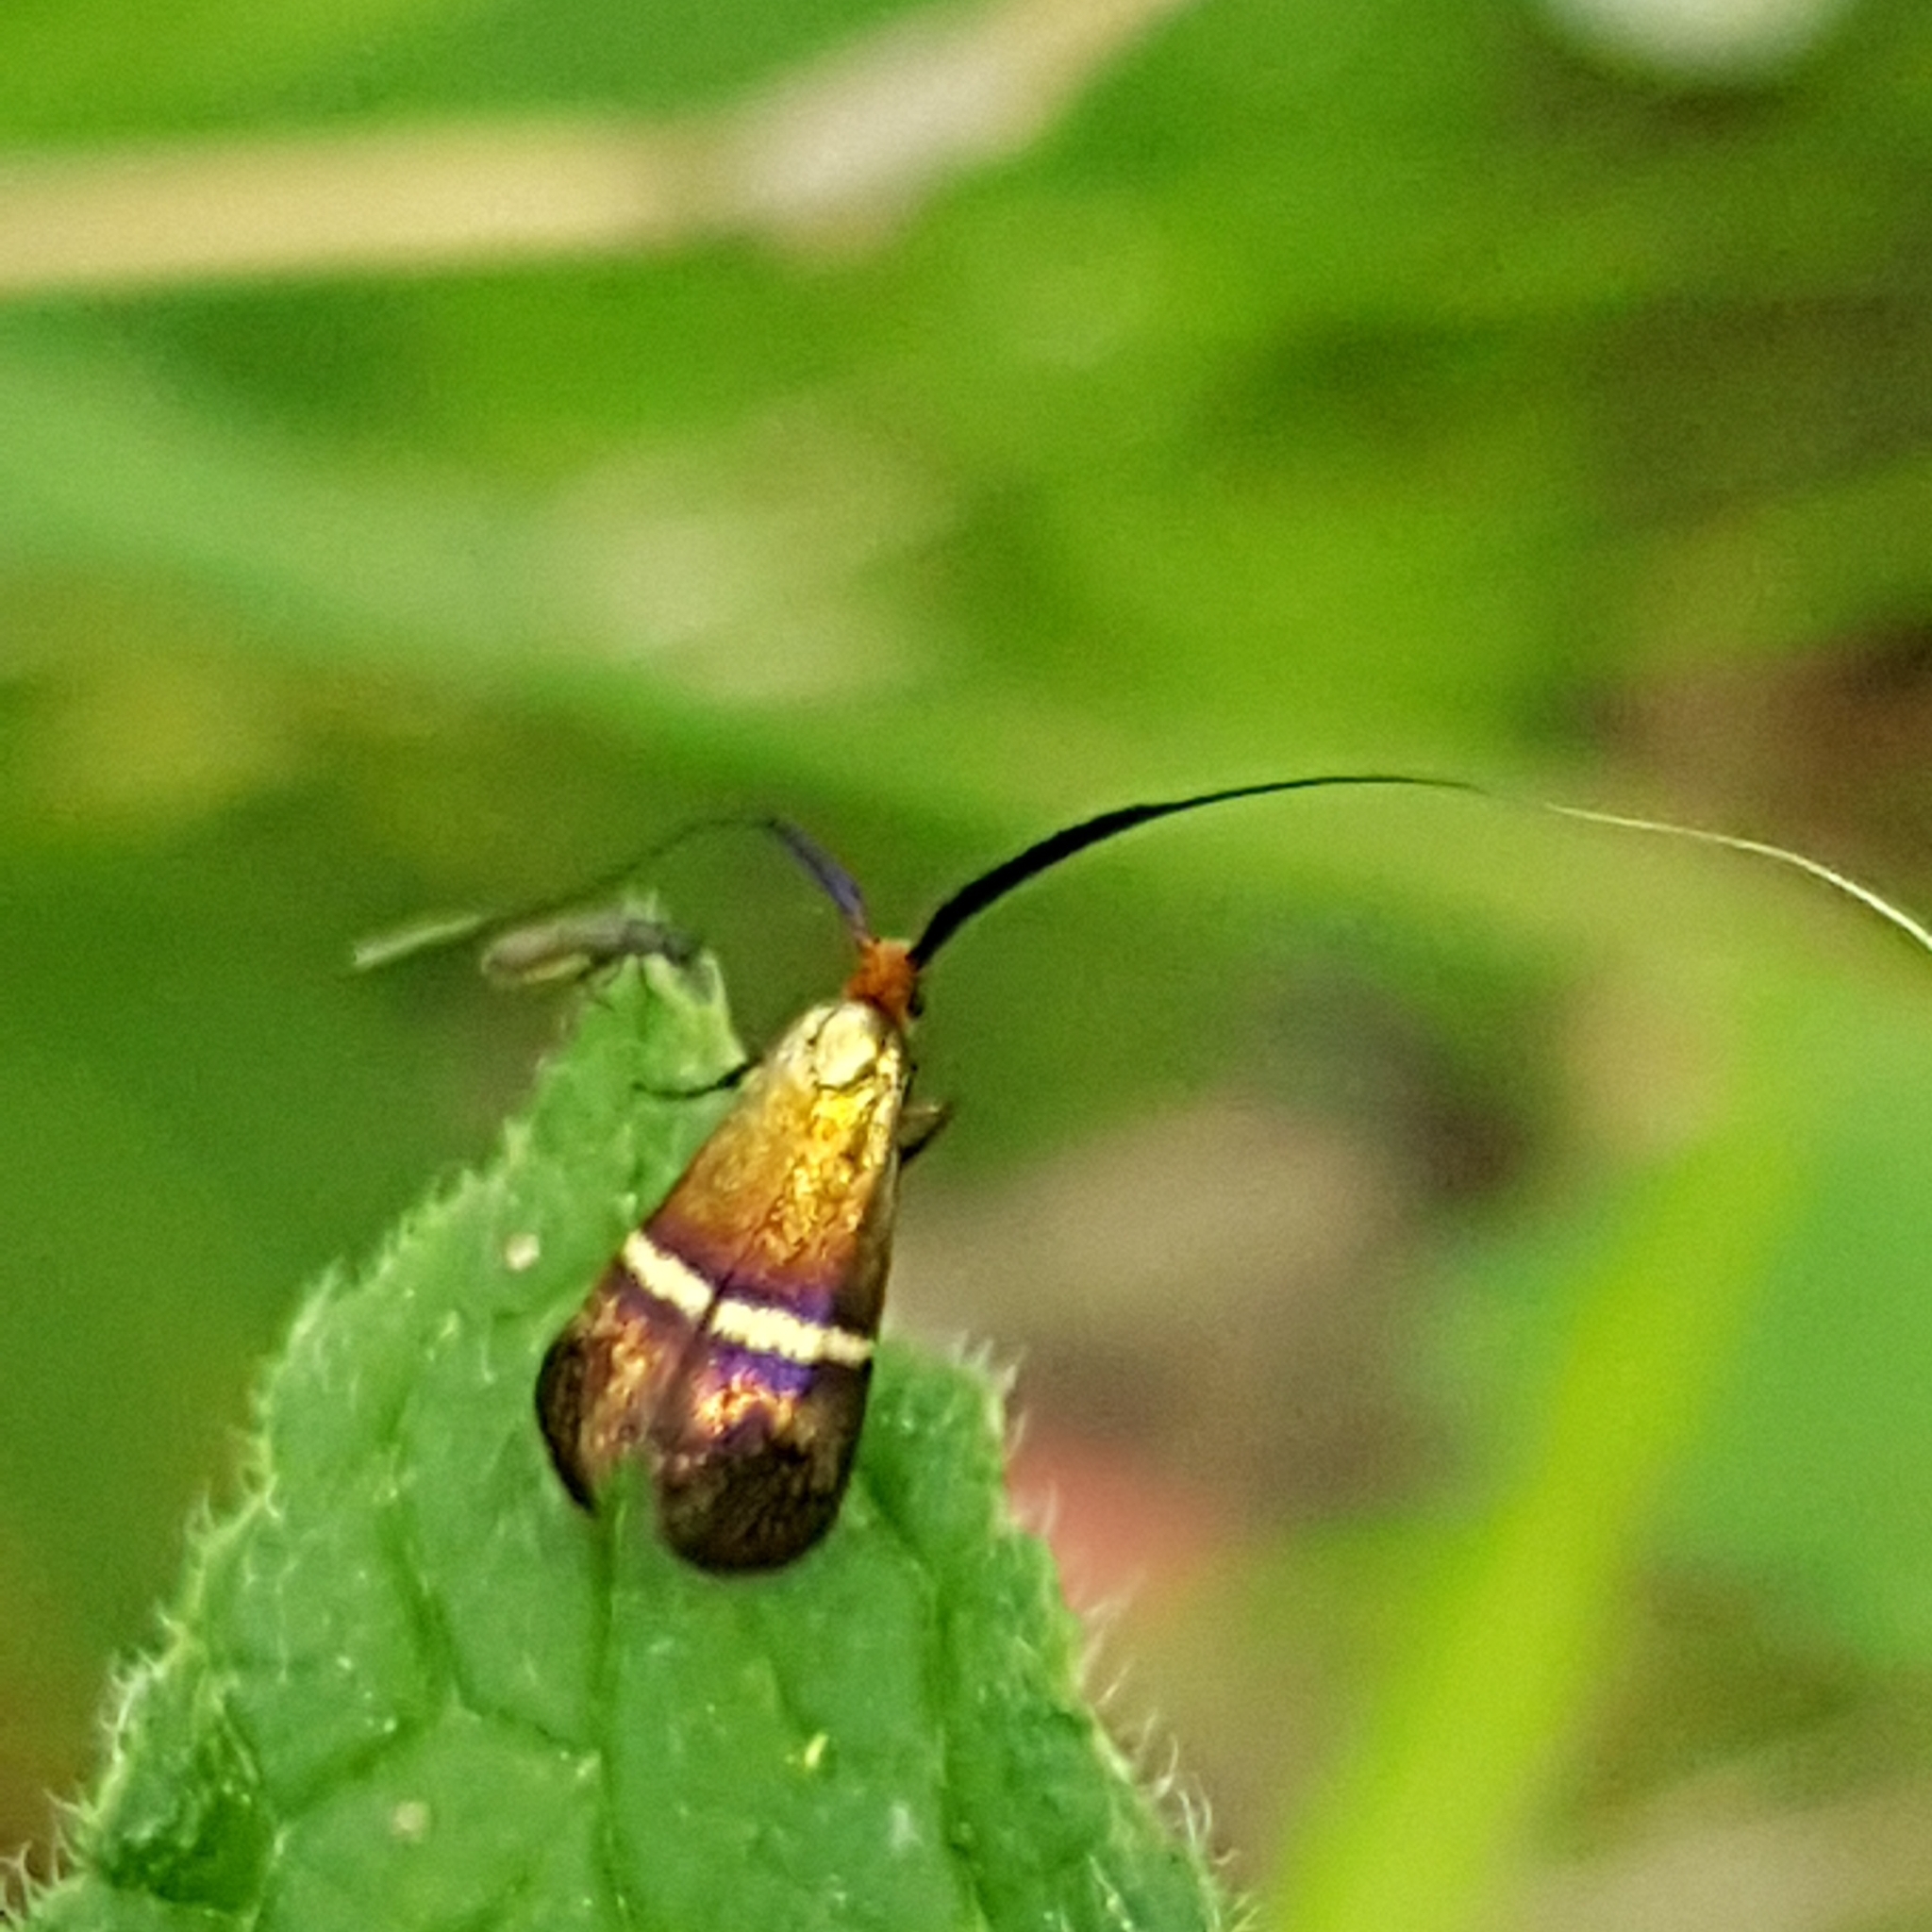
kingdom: Animalia
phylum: Arthropoda
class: Insecta
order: Lepidoptera
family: Adelidae
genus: Adela
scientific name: Adela australis
